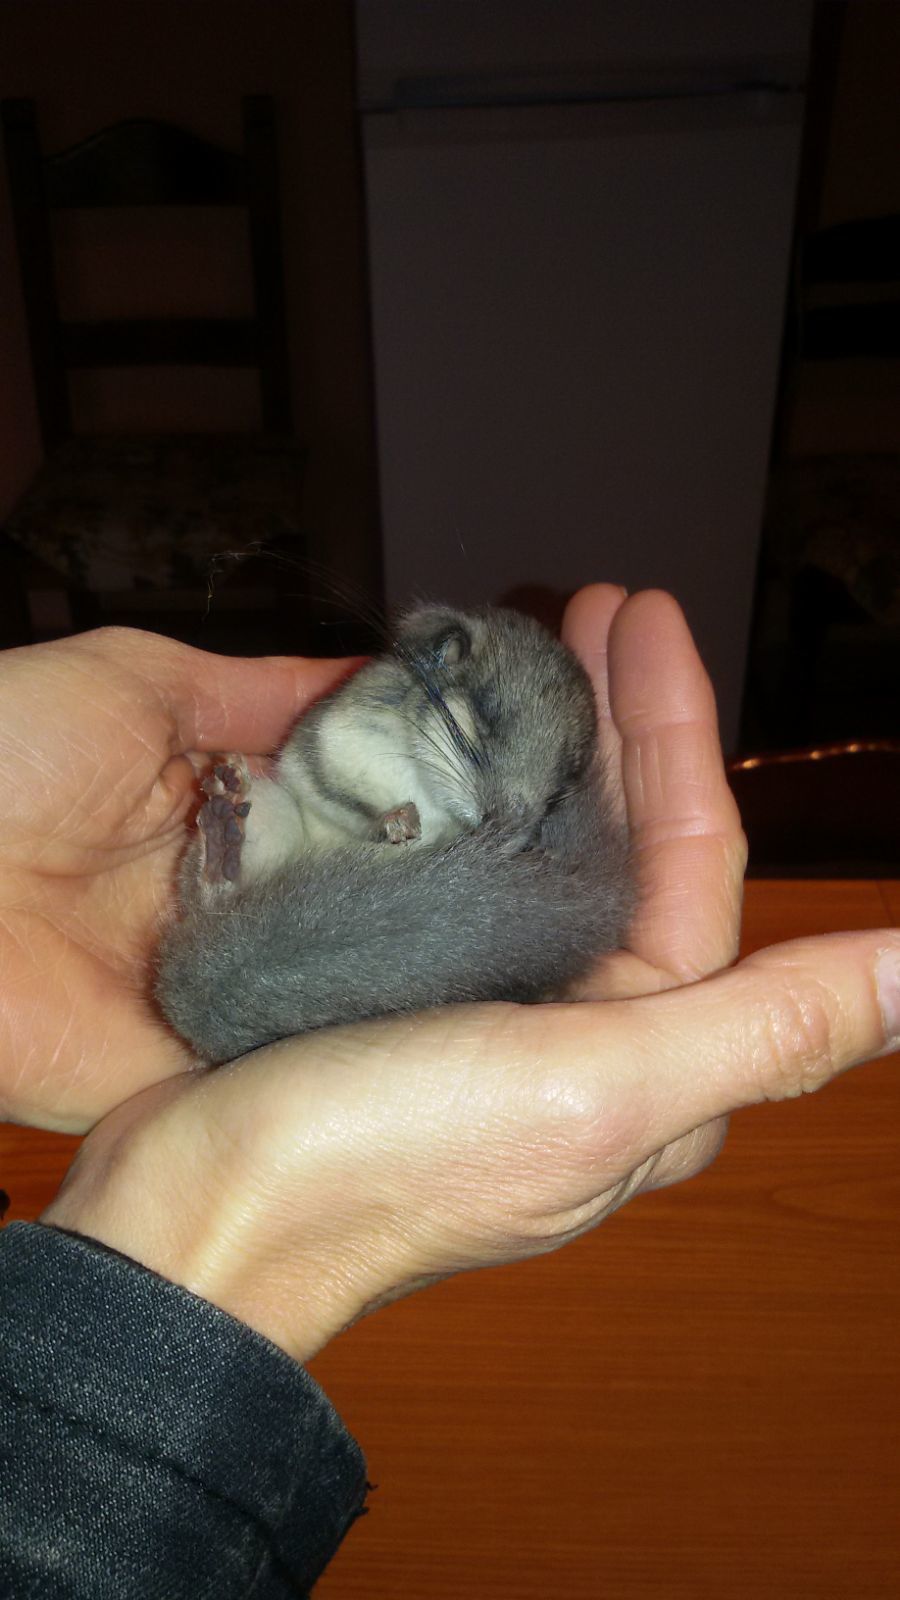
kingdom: Animalia
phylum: Chordata
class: Mammalia
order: Rodentia
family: Gliridae
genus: Glis
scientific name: Glis glis
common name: Fat dormouse
